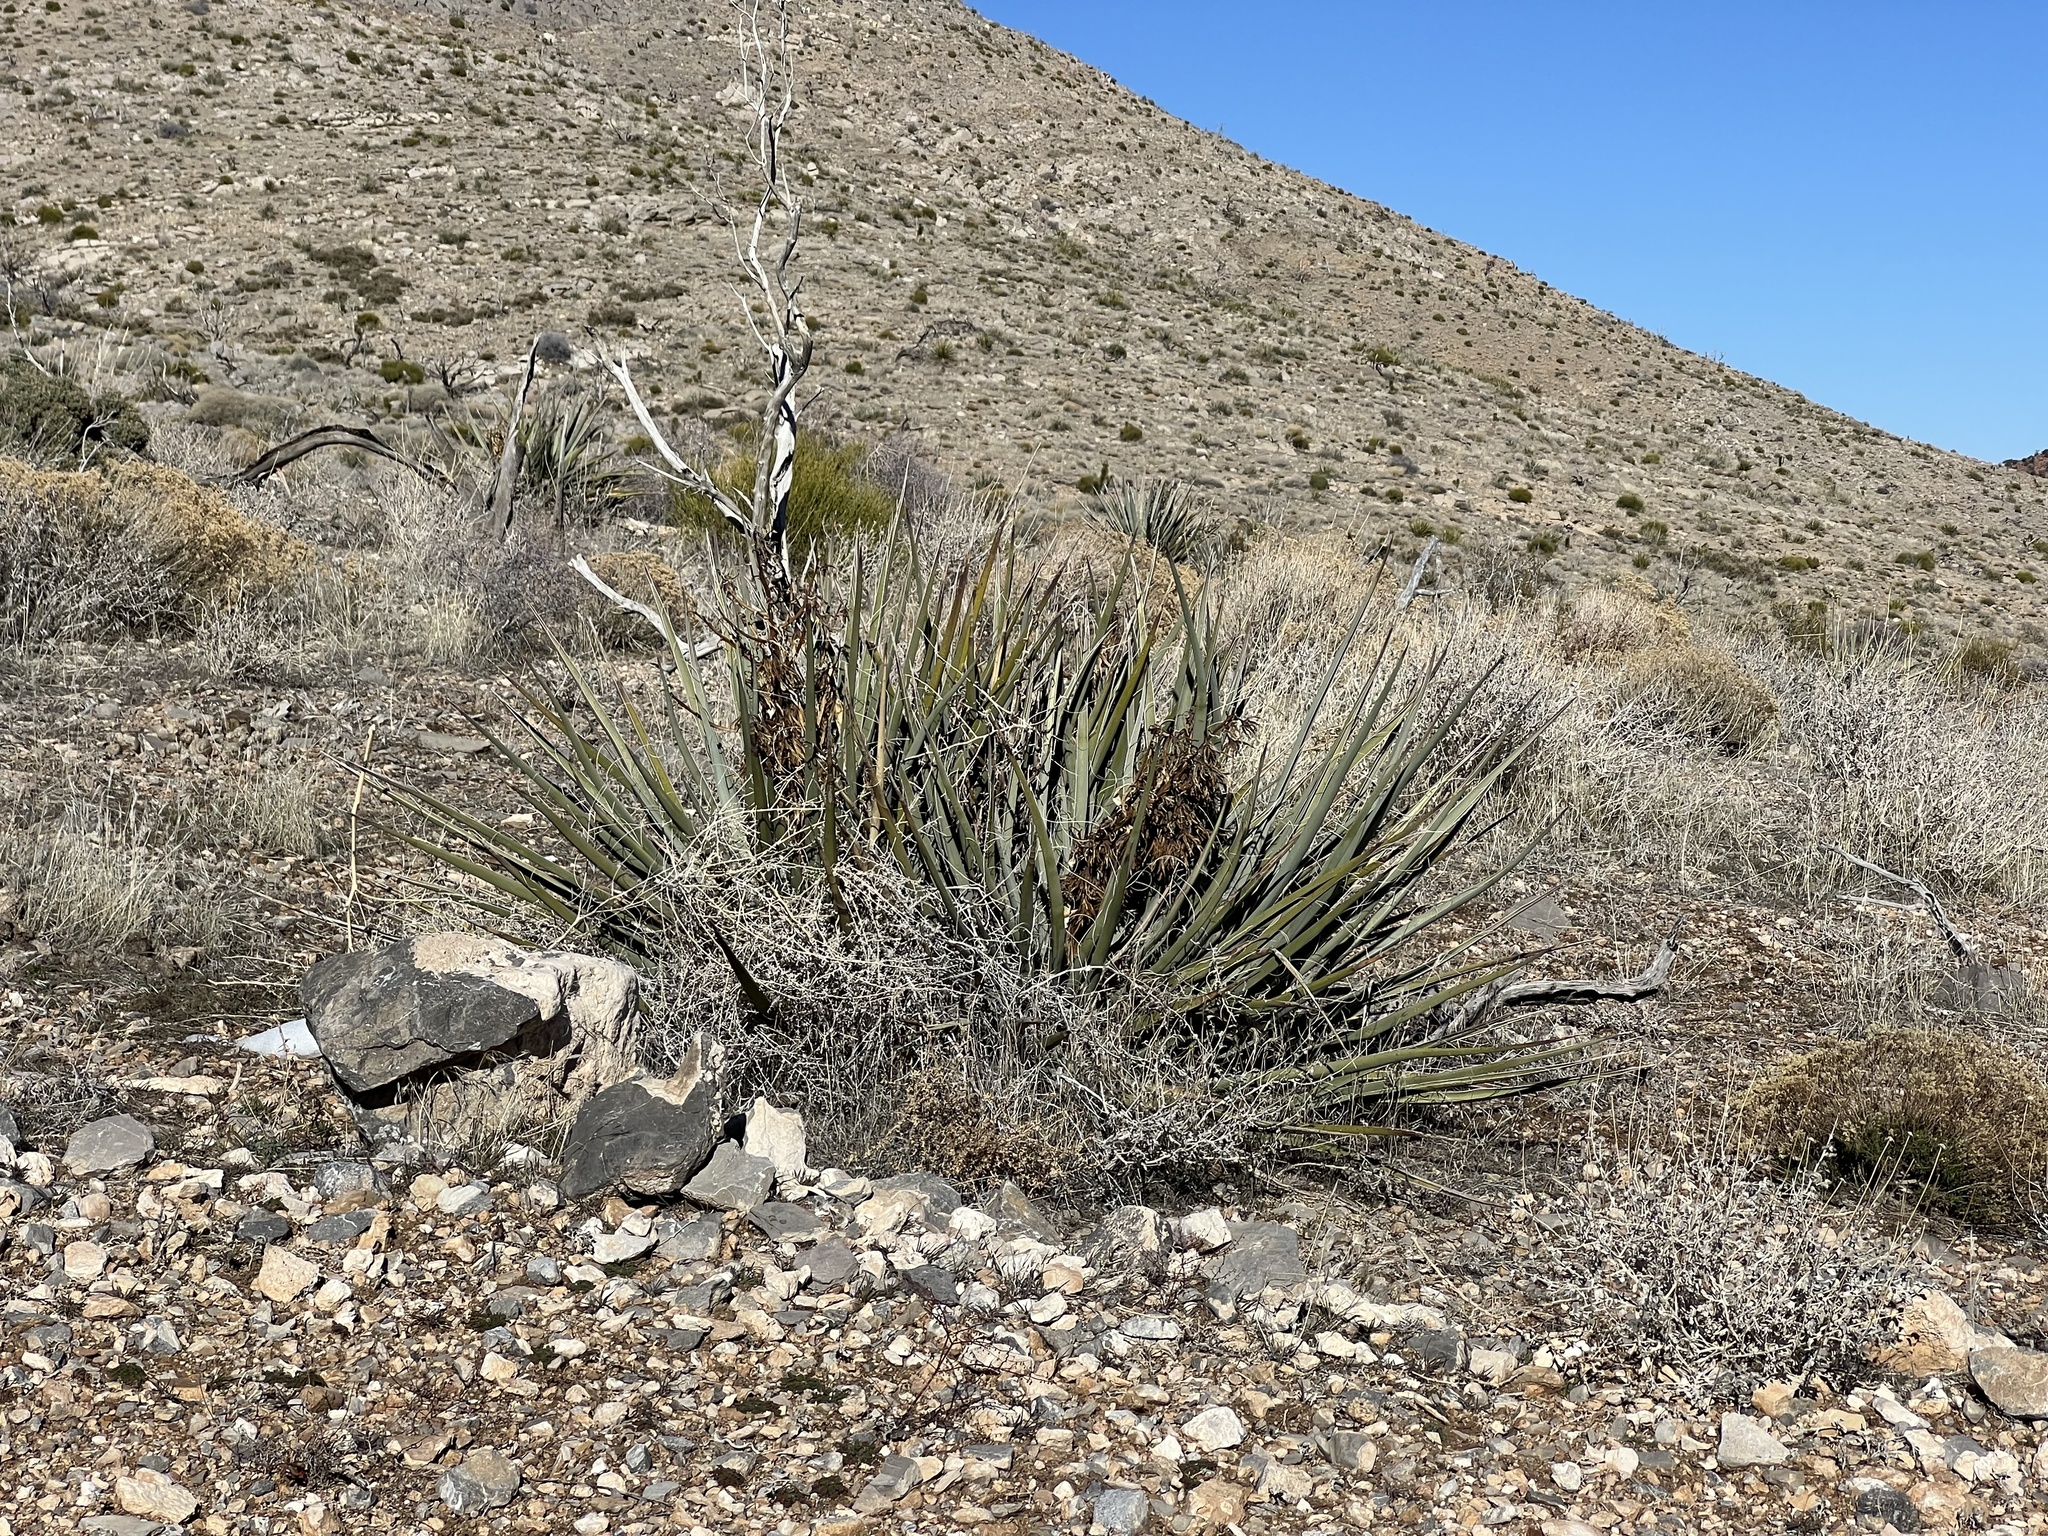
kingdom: Plantae
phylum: Tracheophyta
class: Liliopsida
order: Asparagales
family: Asparagaceae
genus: Yucca
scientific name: Yucca baccata
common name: Banana yucca
